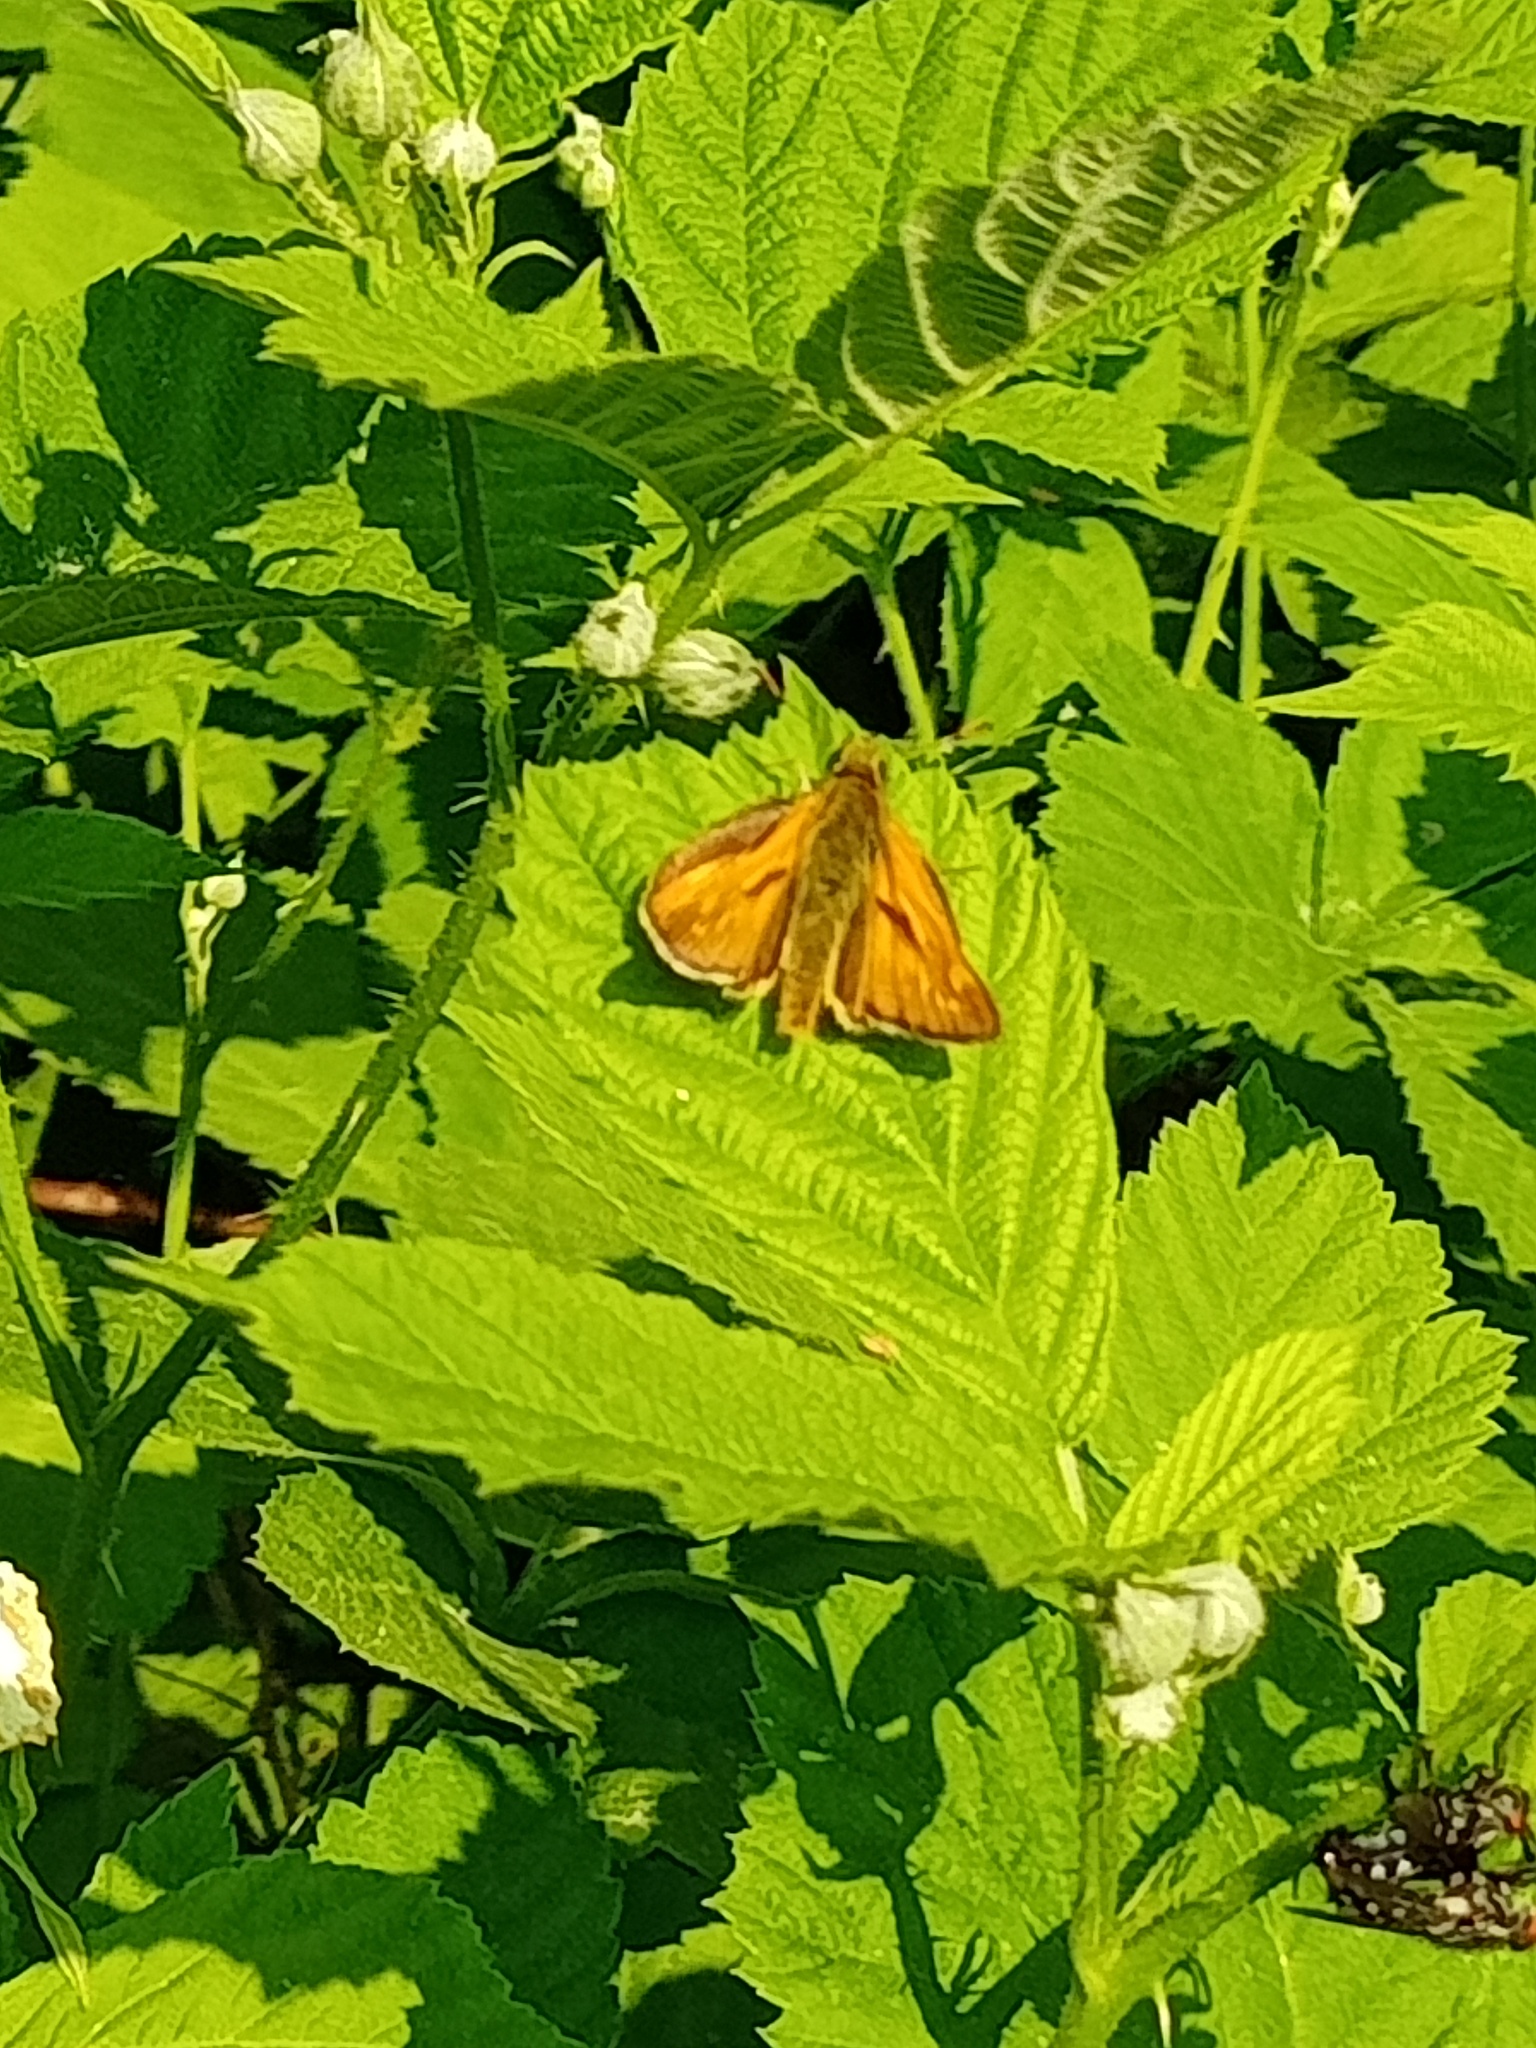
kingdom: Animalia
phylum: Arthropoda
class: Insecta
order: Lepidoptera
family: Hesperiidae
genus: Ochlodes
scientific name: Ochlodes venata
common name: Large skipper
